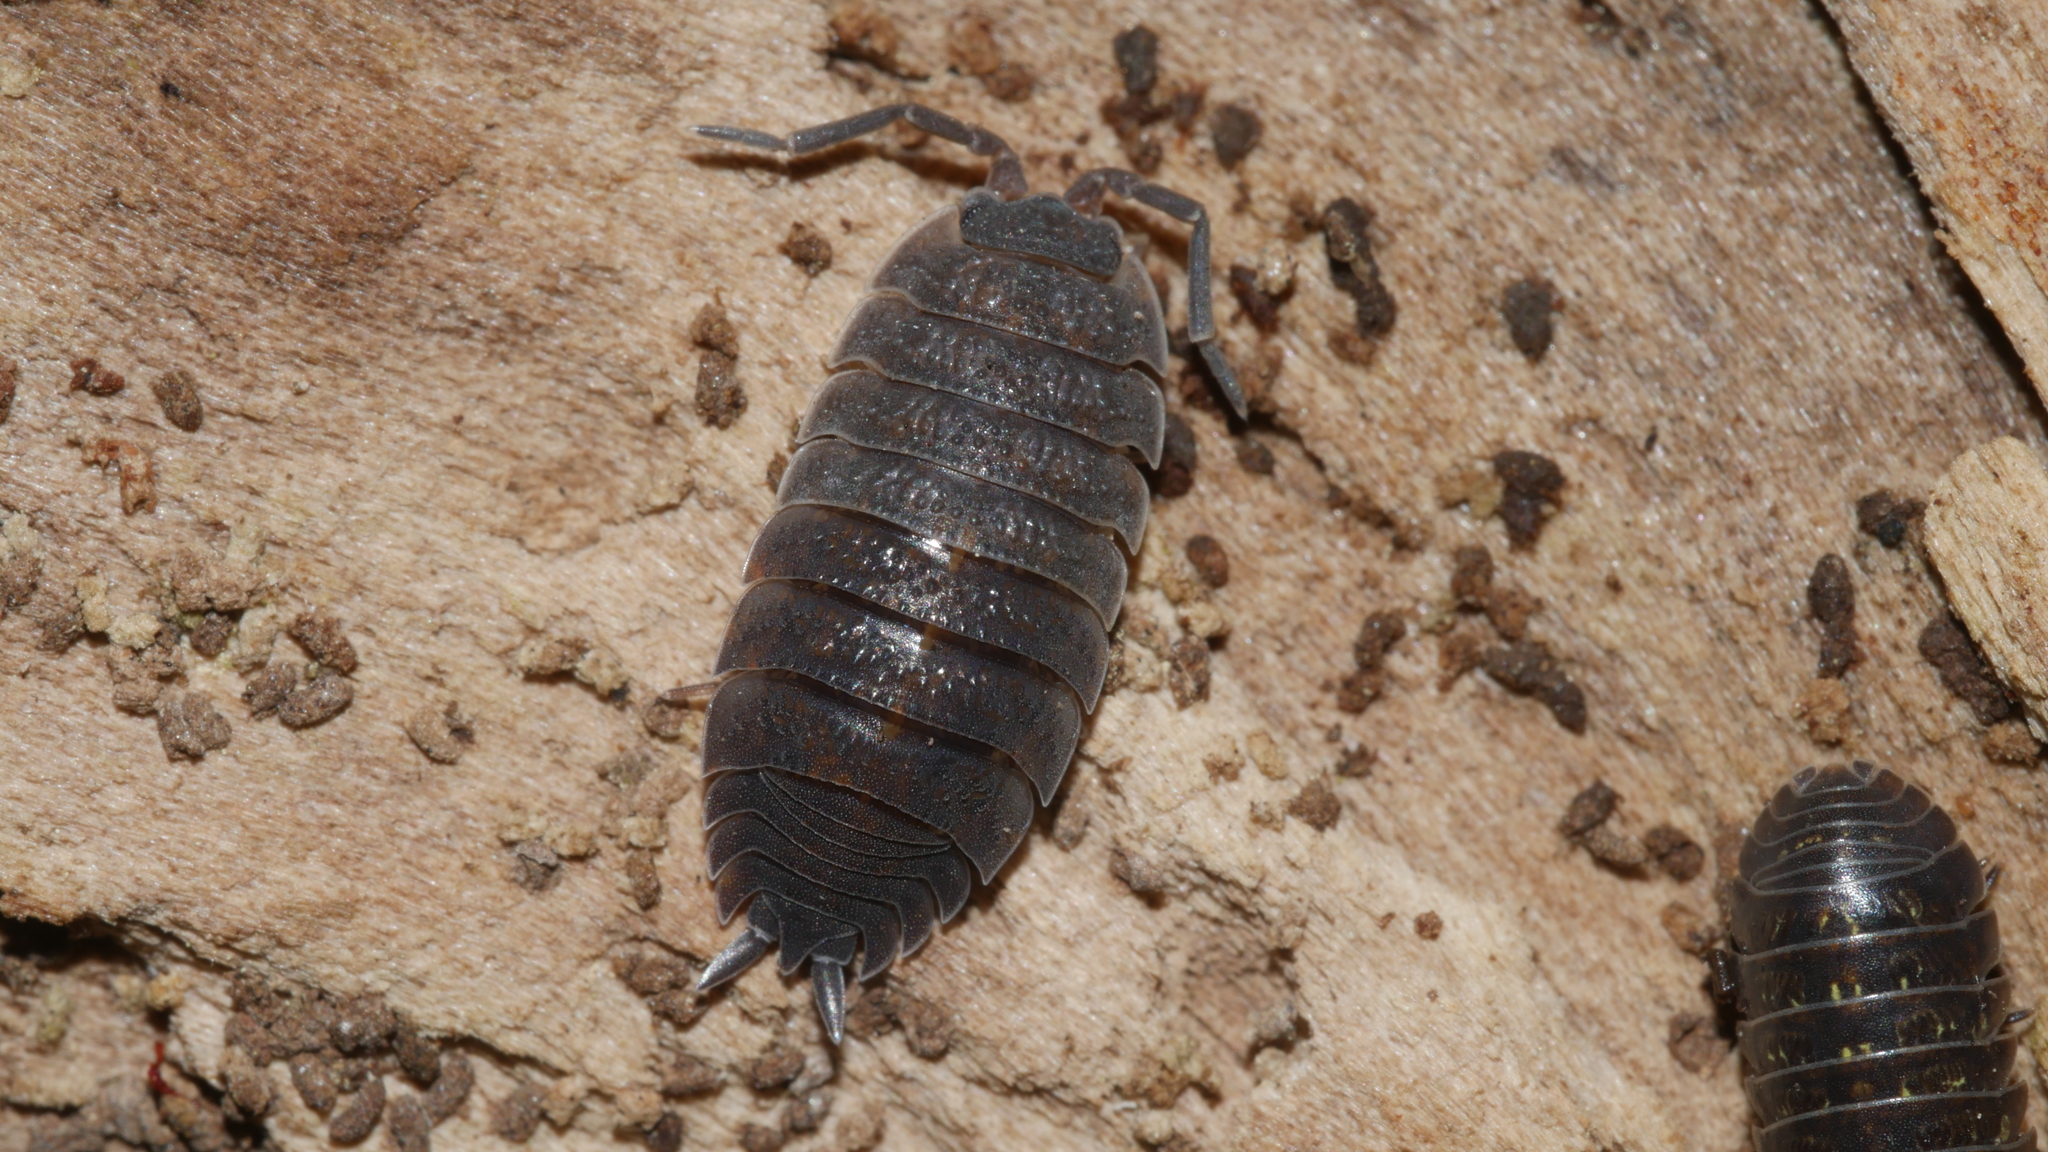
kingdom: Animalia
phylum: Arthropoda
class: Malacostraca
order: Isopoda
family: Porcellionidae
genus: Porcellio
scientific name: Porcellio scaber
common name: Common rough woodlouse
